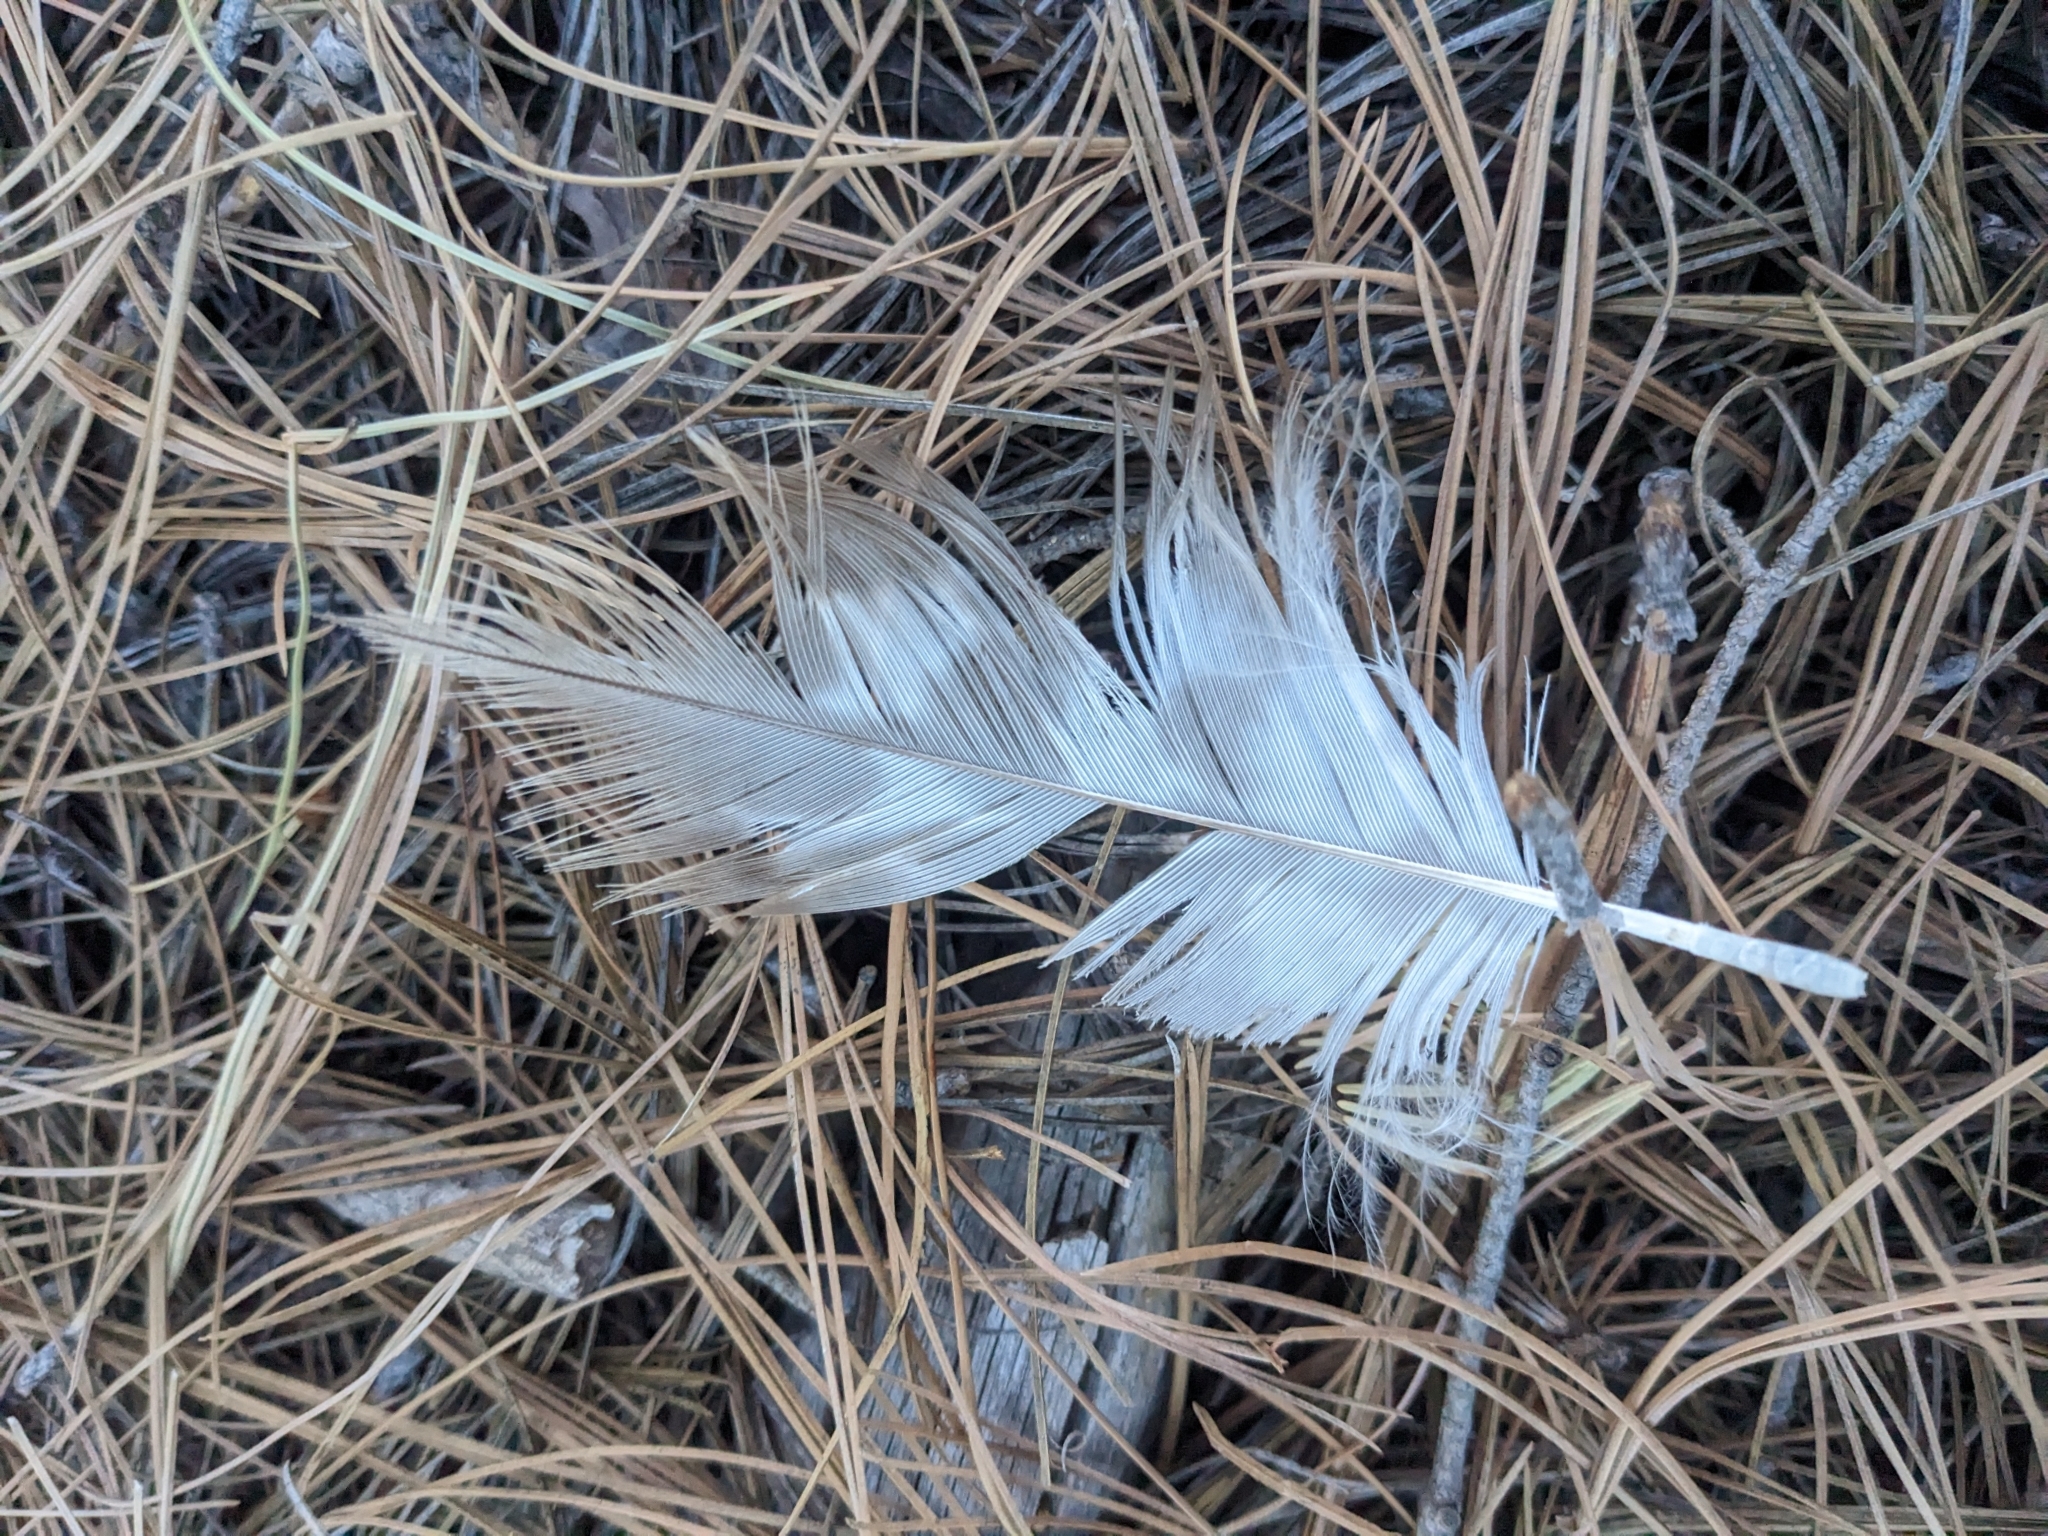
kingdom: Animalia
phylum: Chordata
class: Aves
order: Accipitriformes
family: Accipitridae
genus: Aquila
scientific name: Aquila chrysaetos
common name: Golden eagle
